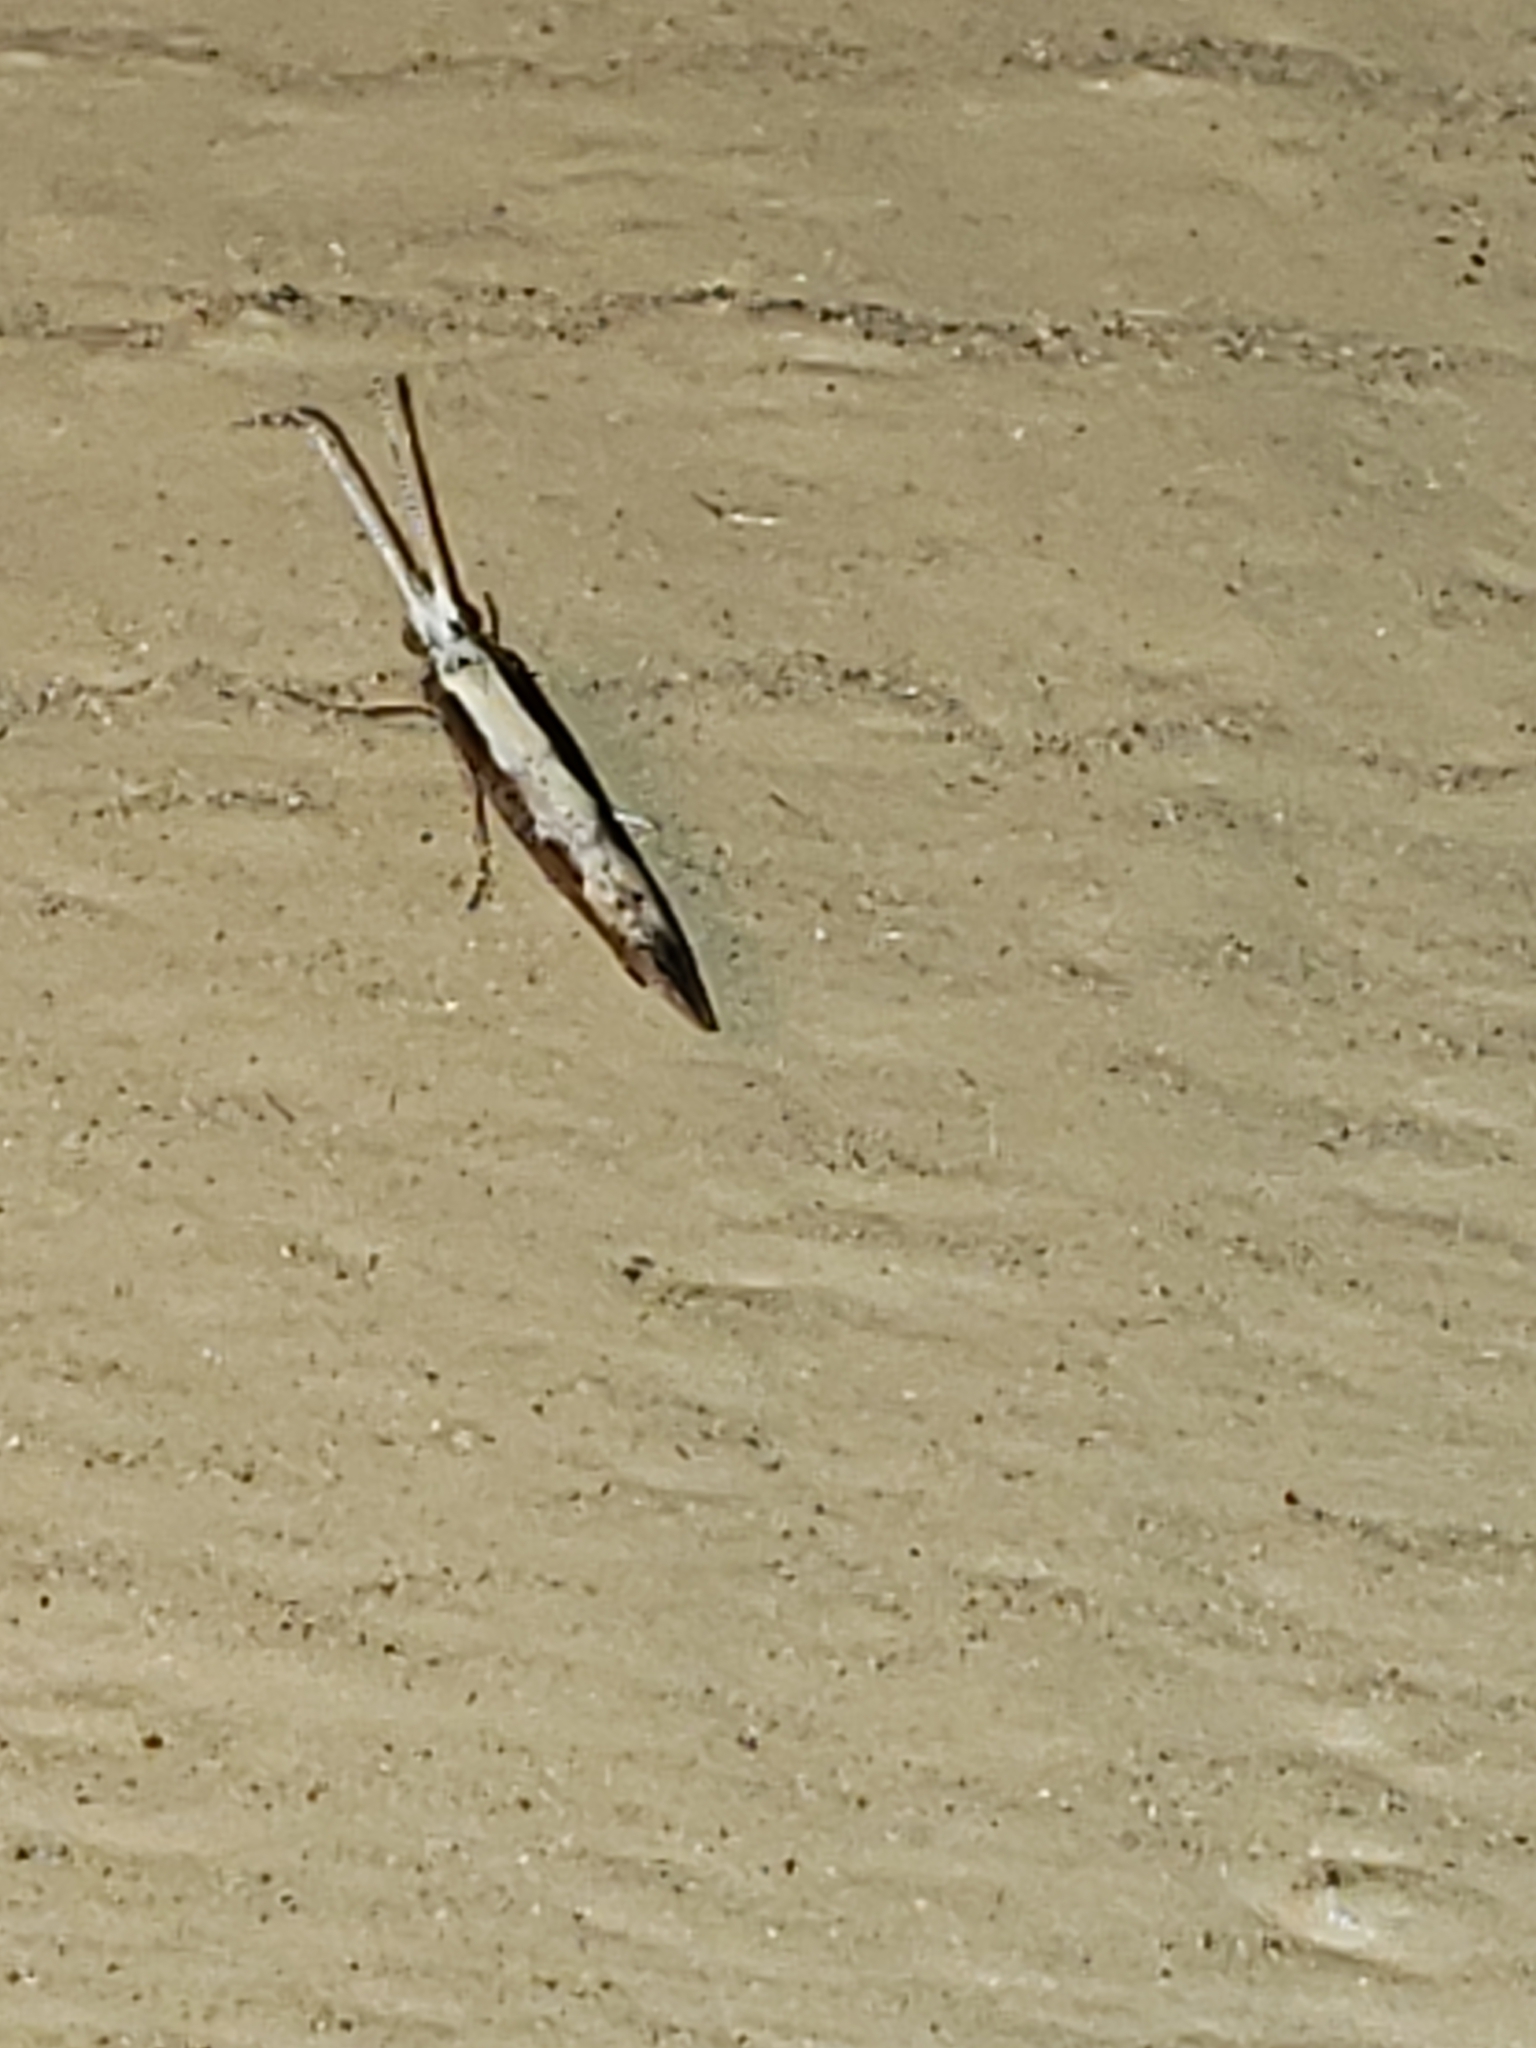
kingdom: Animalia
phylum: Arthropoda
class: Insecta
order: Lepidoptera
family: Plutellidae
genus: Plutella
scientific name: Plutella xylostella
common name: Diamond-back moth
